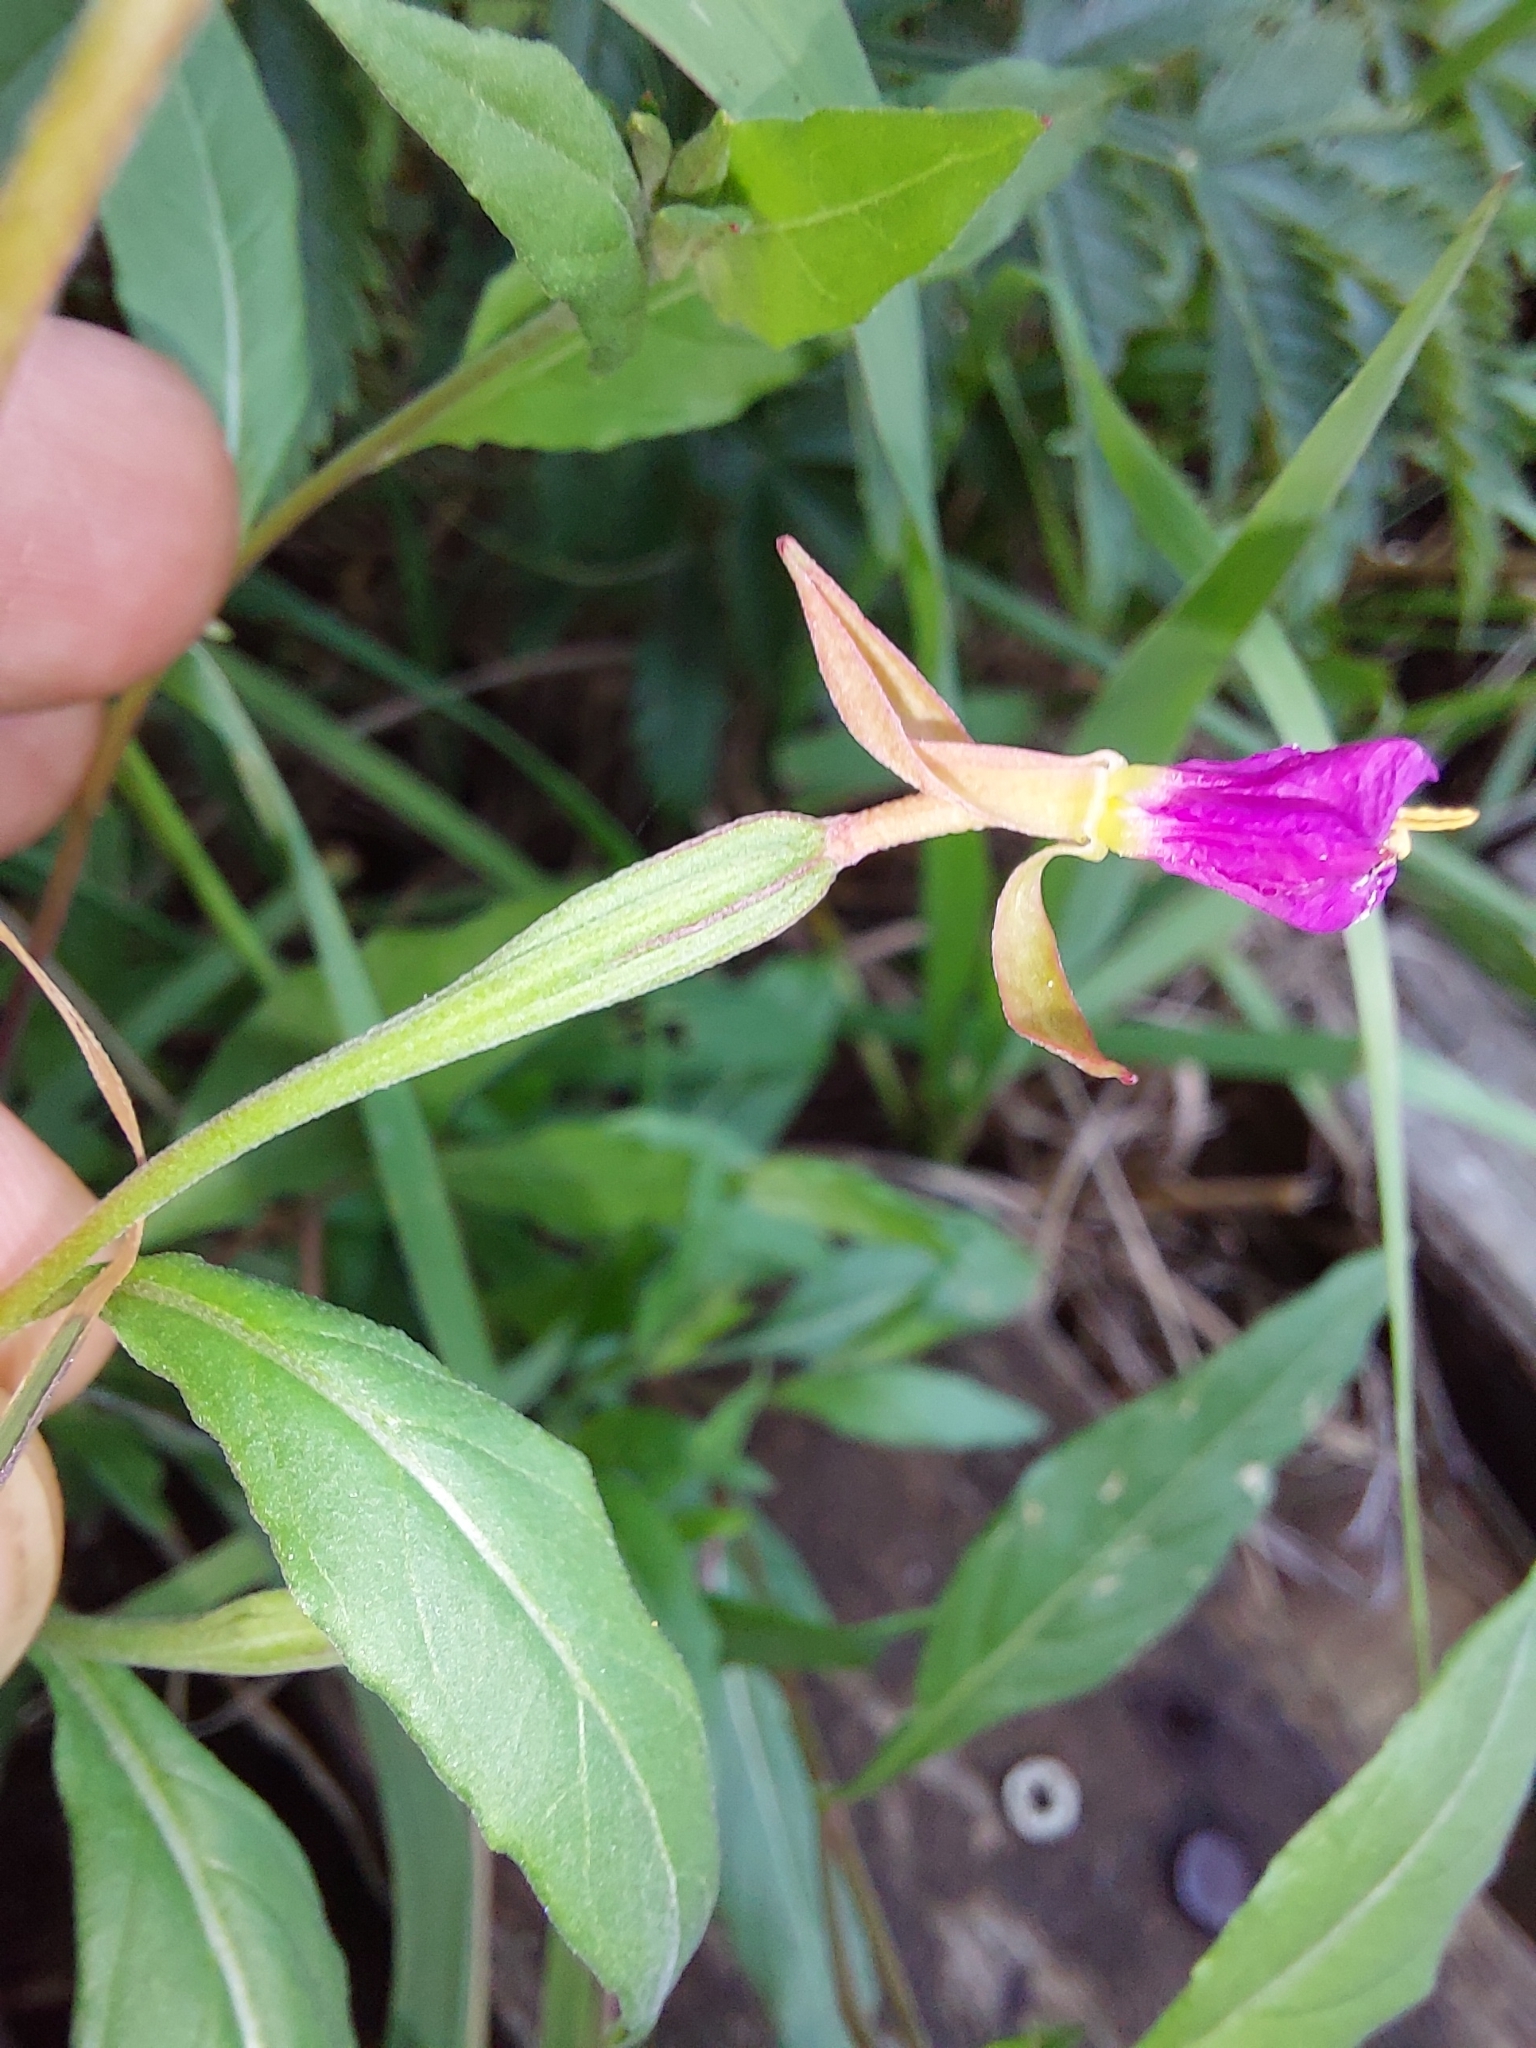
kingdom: Plantae
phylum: Tracheophyta
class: Magnoliopsida
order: Myrtales
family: Onagraceae
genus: Oenothera
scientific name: Oenothera rosea
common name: Rosy evening-primrose
